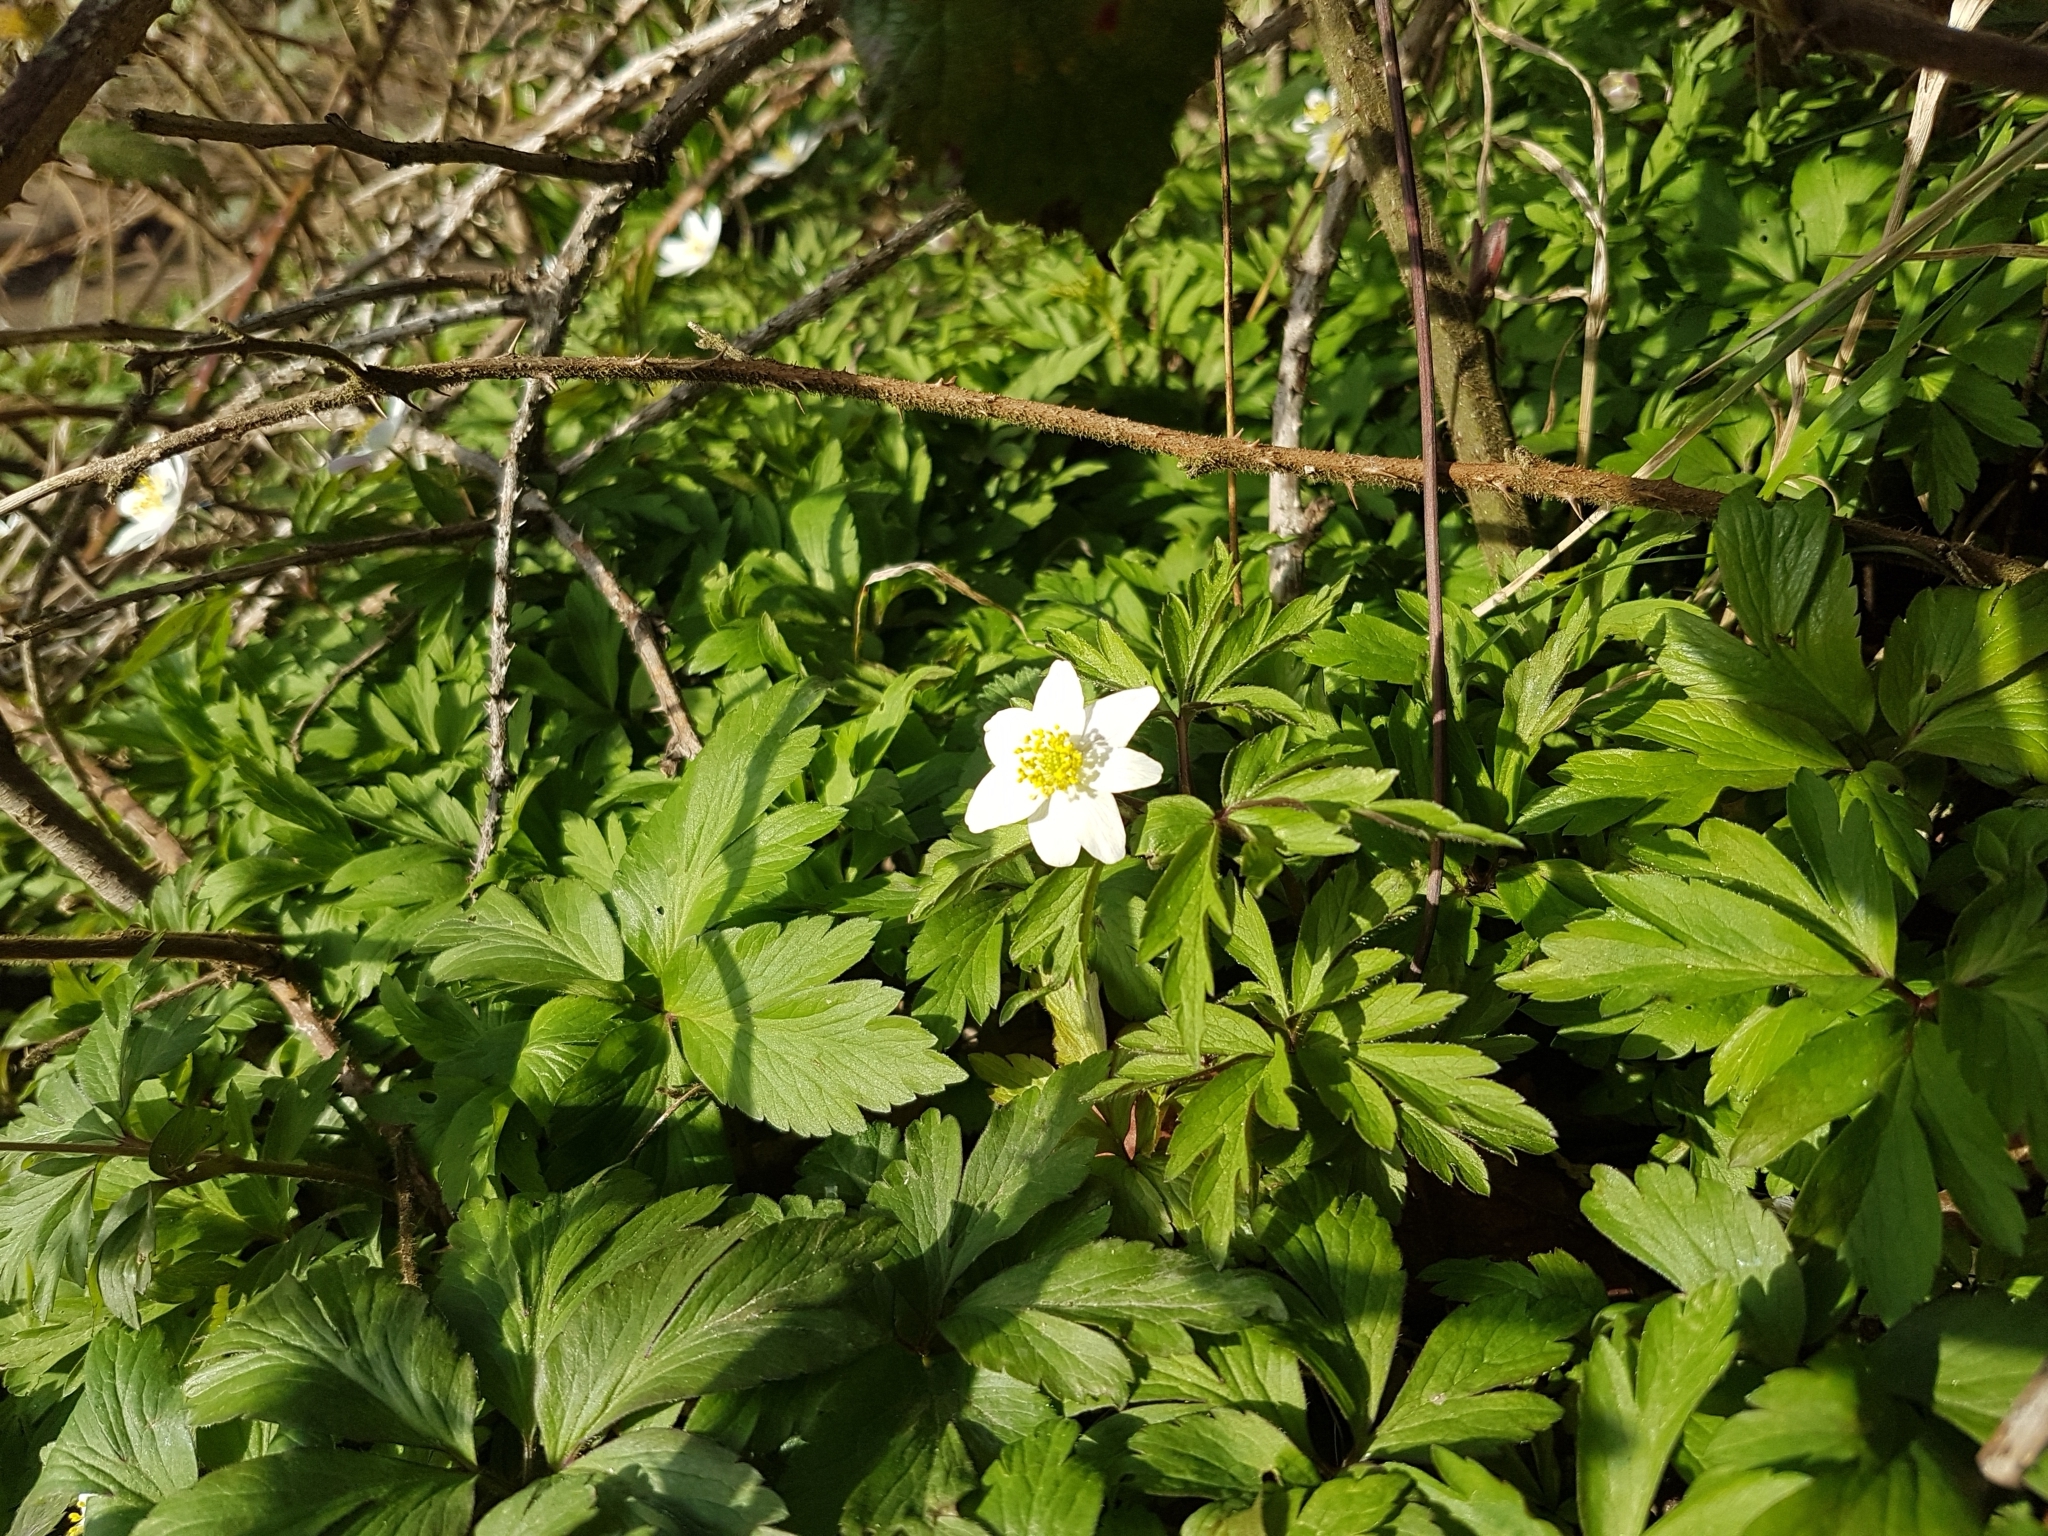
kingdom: Plantae
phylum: Tracheophyta
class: Magnoliopsida
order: Ranunculales
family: Ranunculaceae
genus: Anemone
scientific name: Anemone nemorosa
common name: Wood anemone
